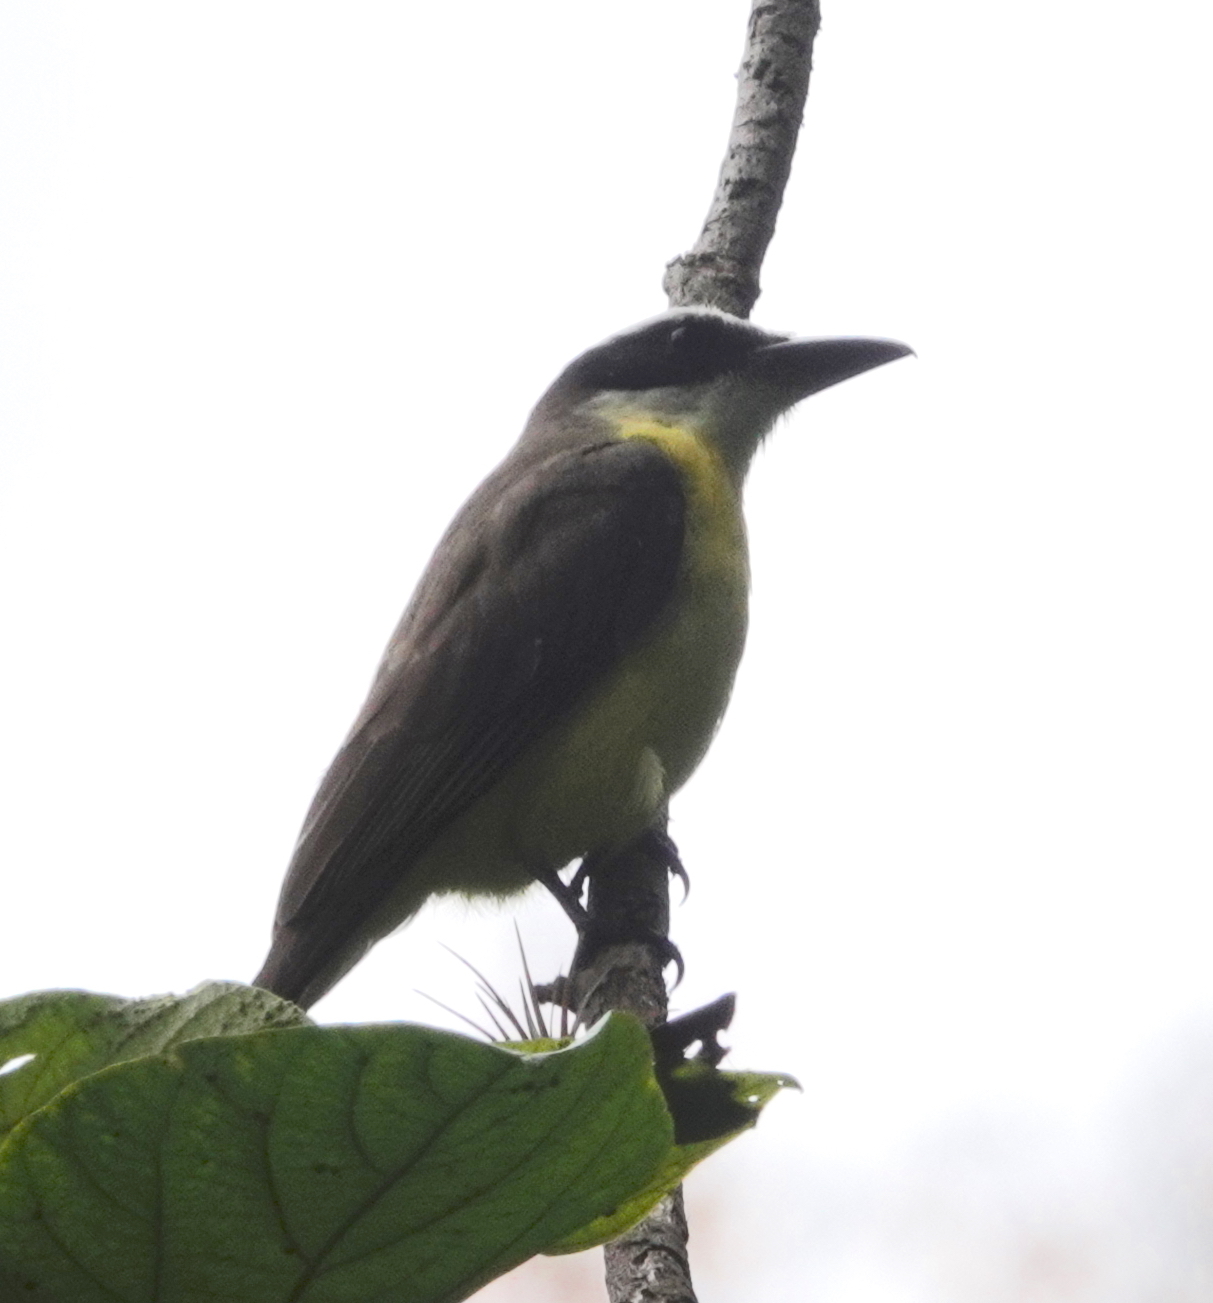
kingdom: Animalia
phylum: Chordata
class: Aves
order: Passeriformes
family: Tyrannidae
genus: Megarynchus
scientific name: Megarynchus pitangua
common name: Boat-billed flycatcher
